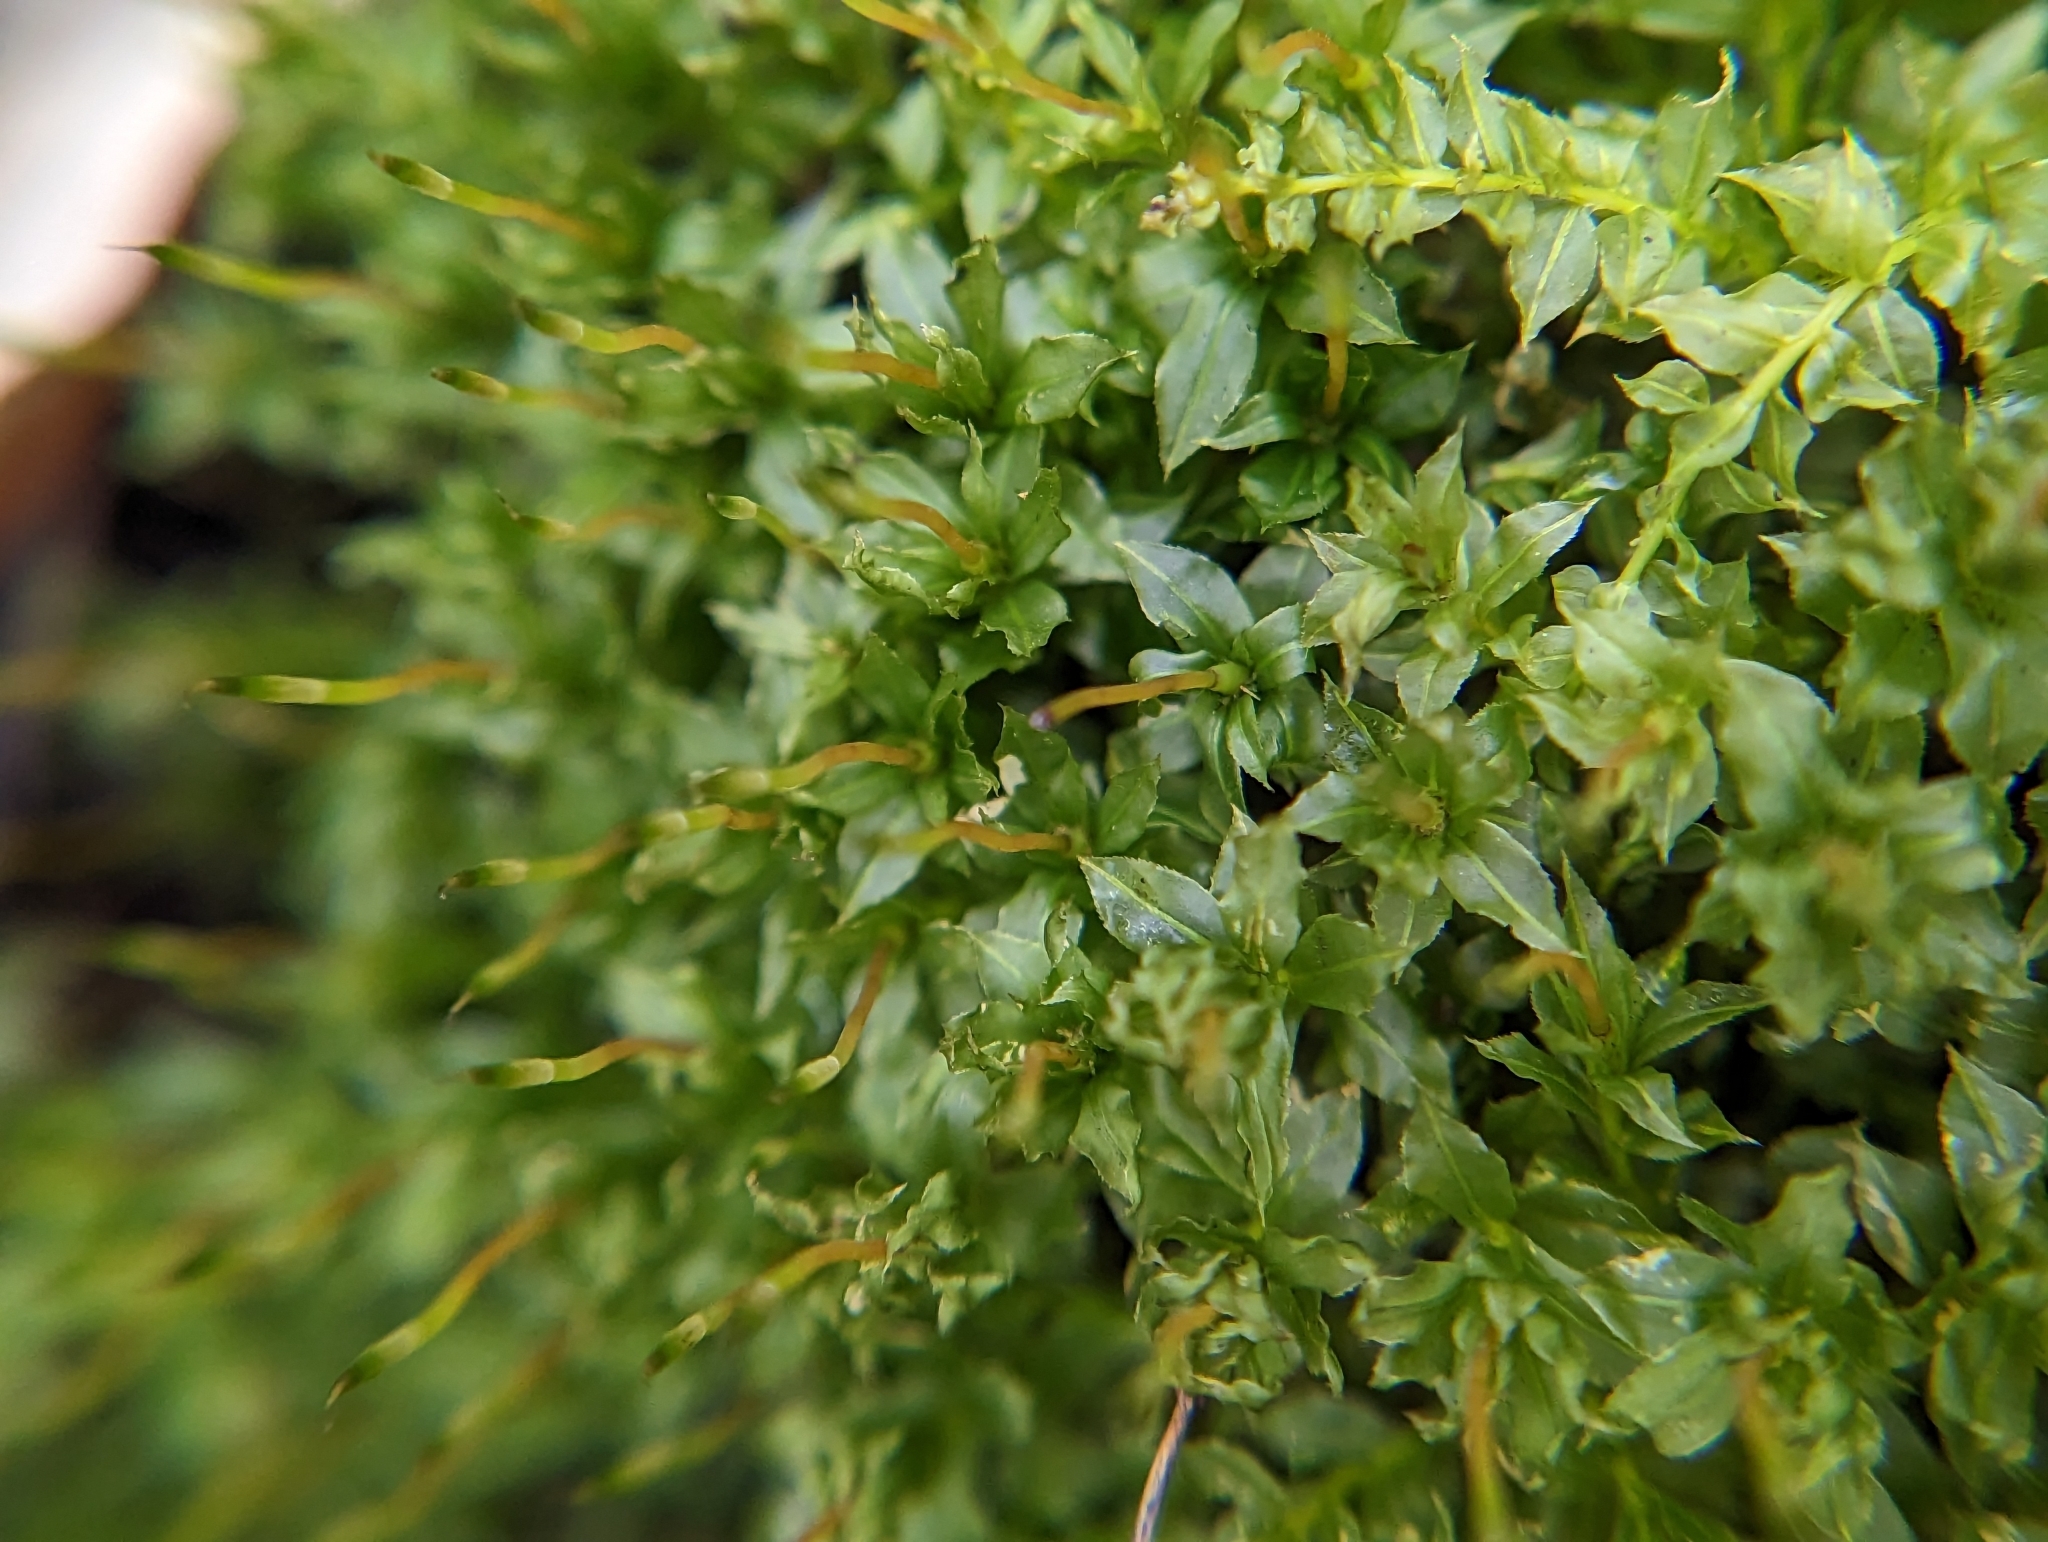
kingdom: Plantae
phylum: Bryophyta
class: Bryopsida
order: Bryales
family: Mniaceae
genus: Plagiomnium
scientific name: Plagiomnium cuspidatum
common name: Woodsy leafy moss
